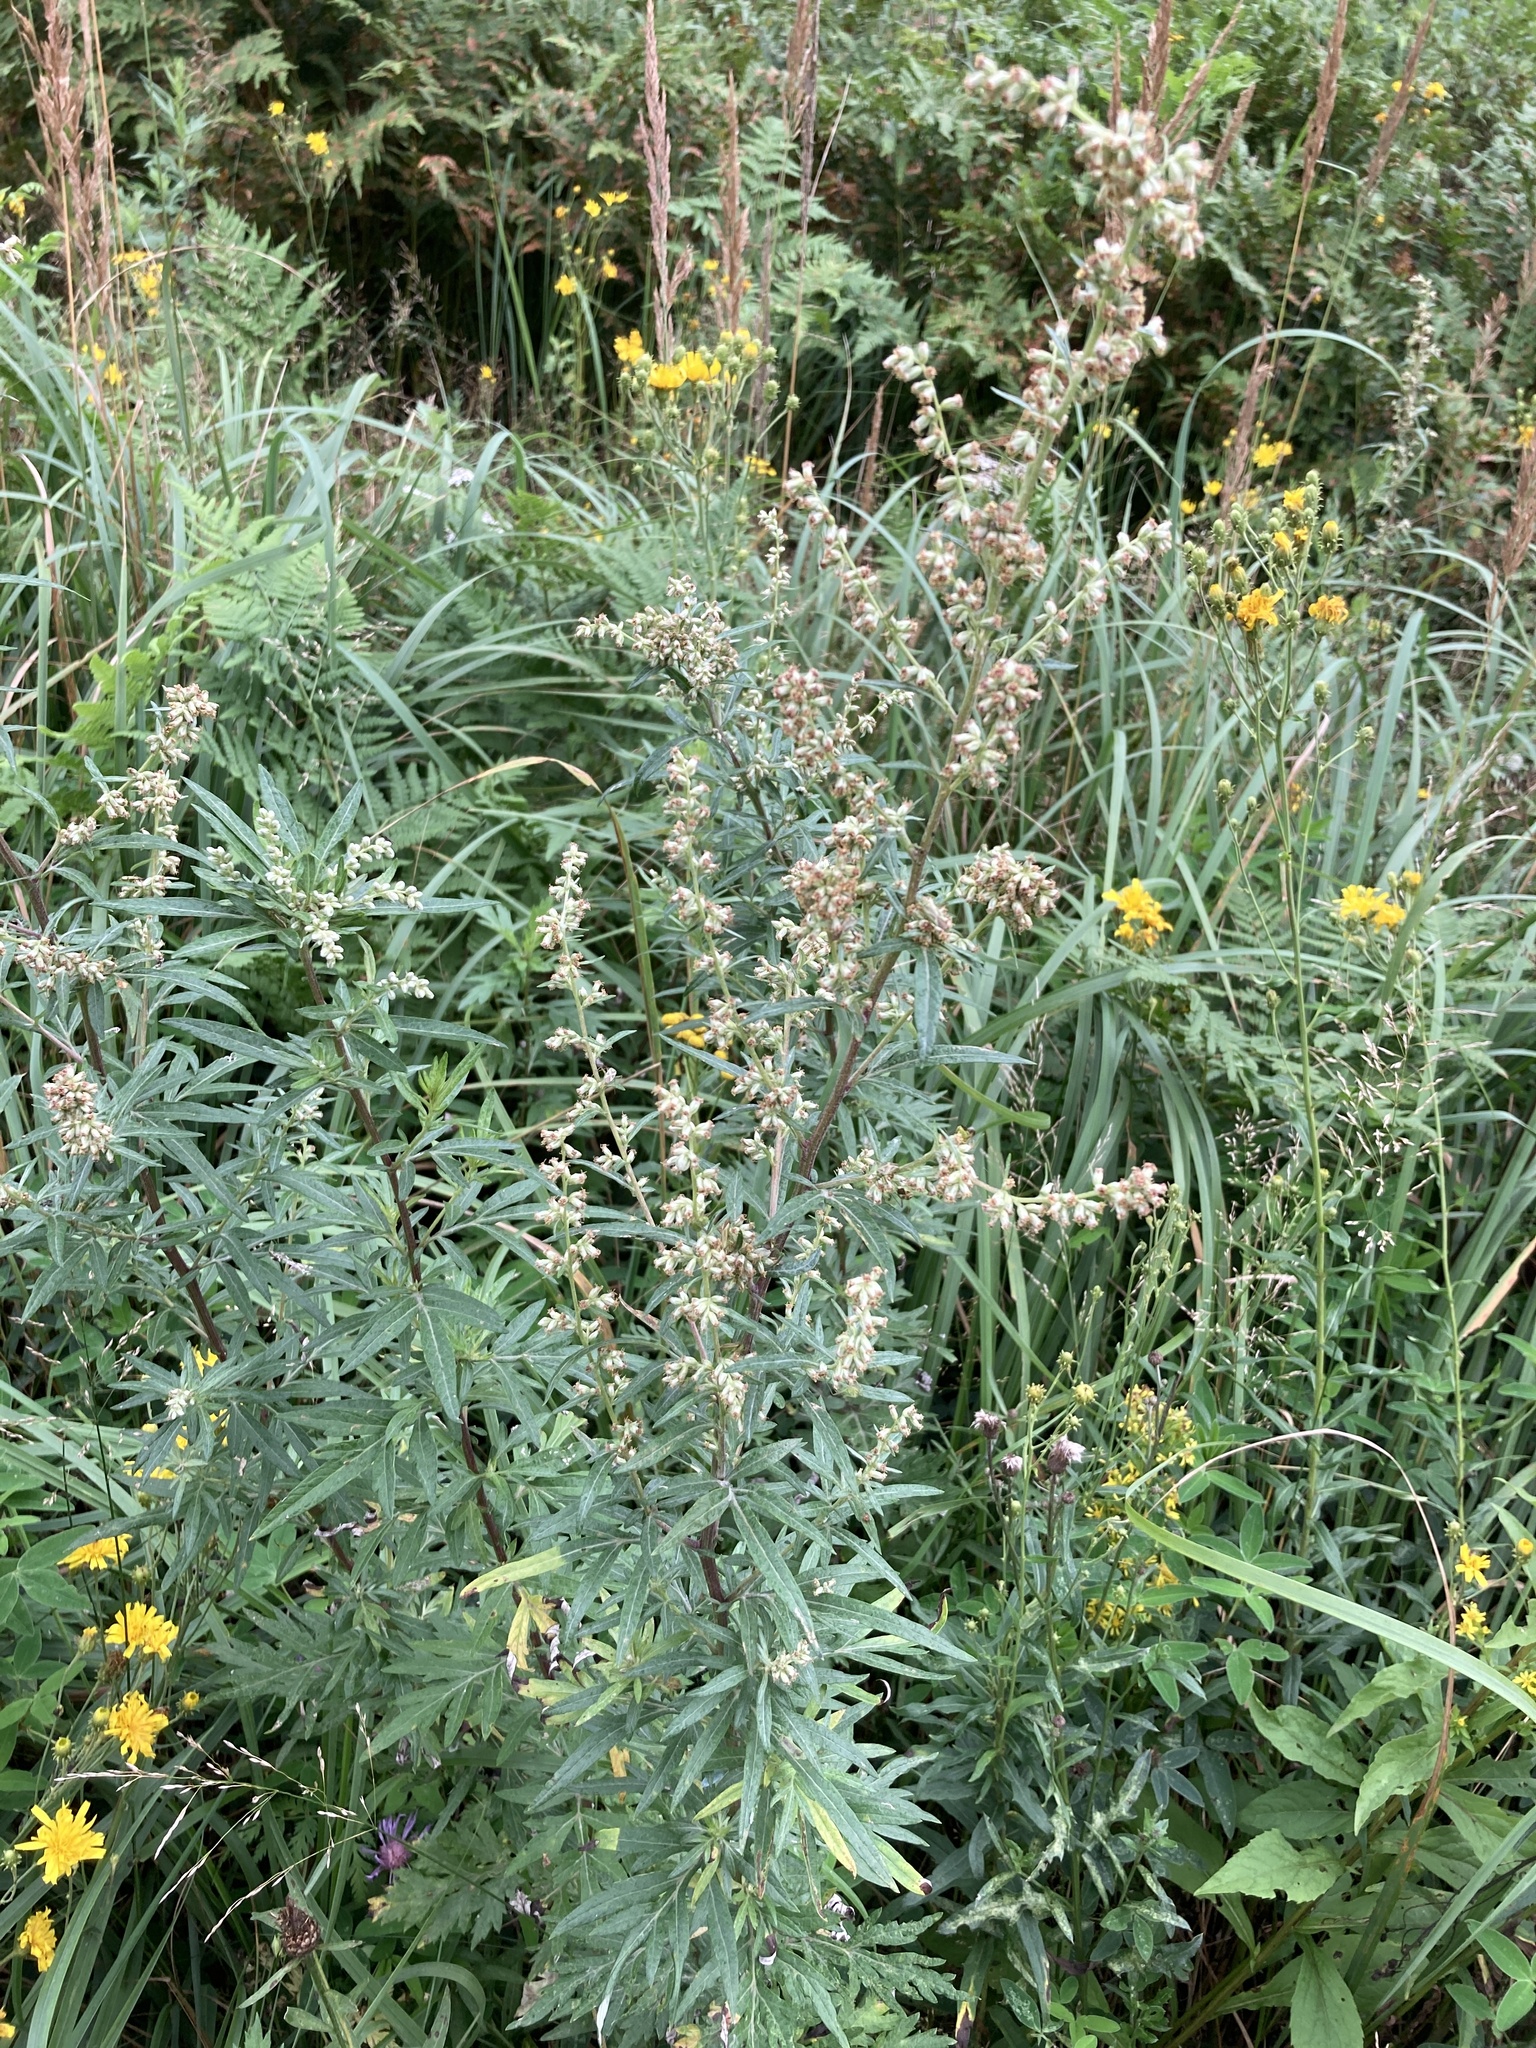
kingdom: Plantae
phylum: Tracheophyta
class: Magnoliopsida
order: Asterales
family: Asteraceae
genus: Artemisia
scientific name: Artemisia vulgaris
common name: Mugwort
